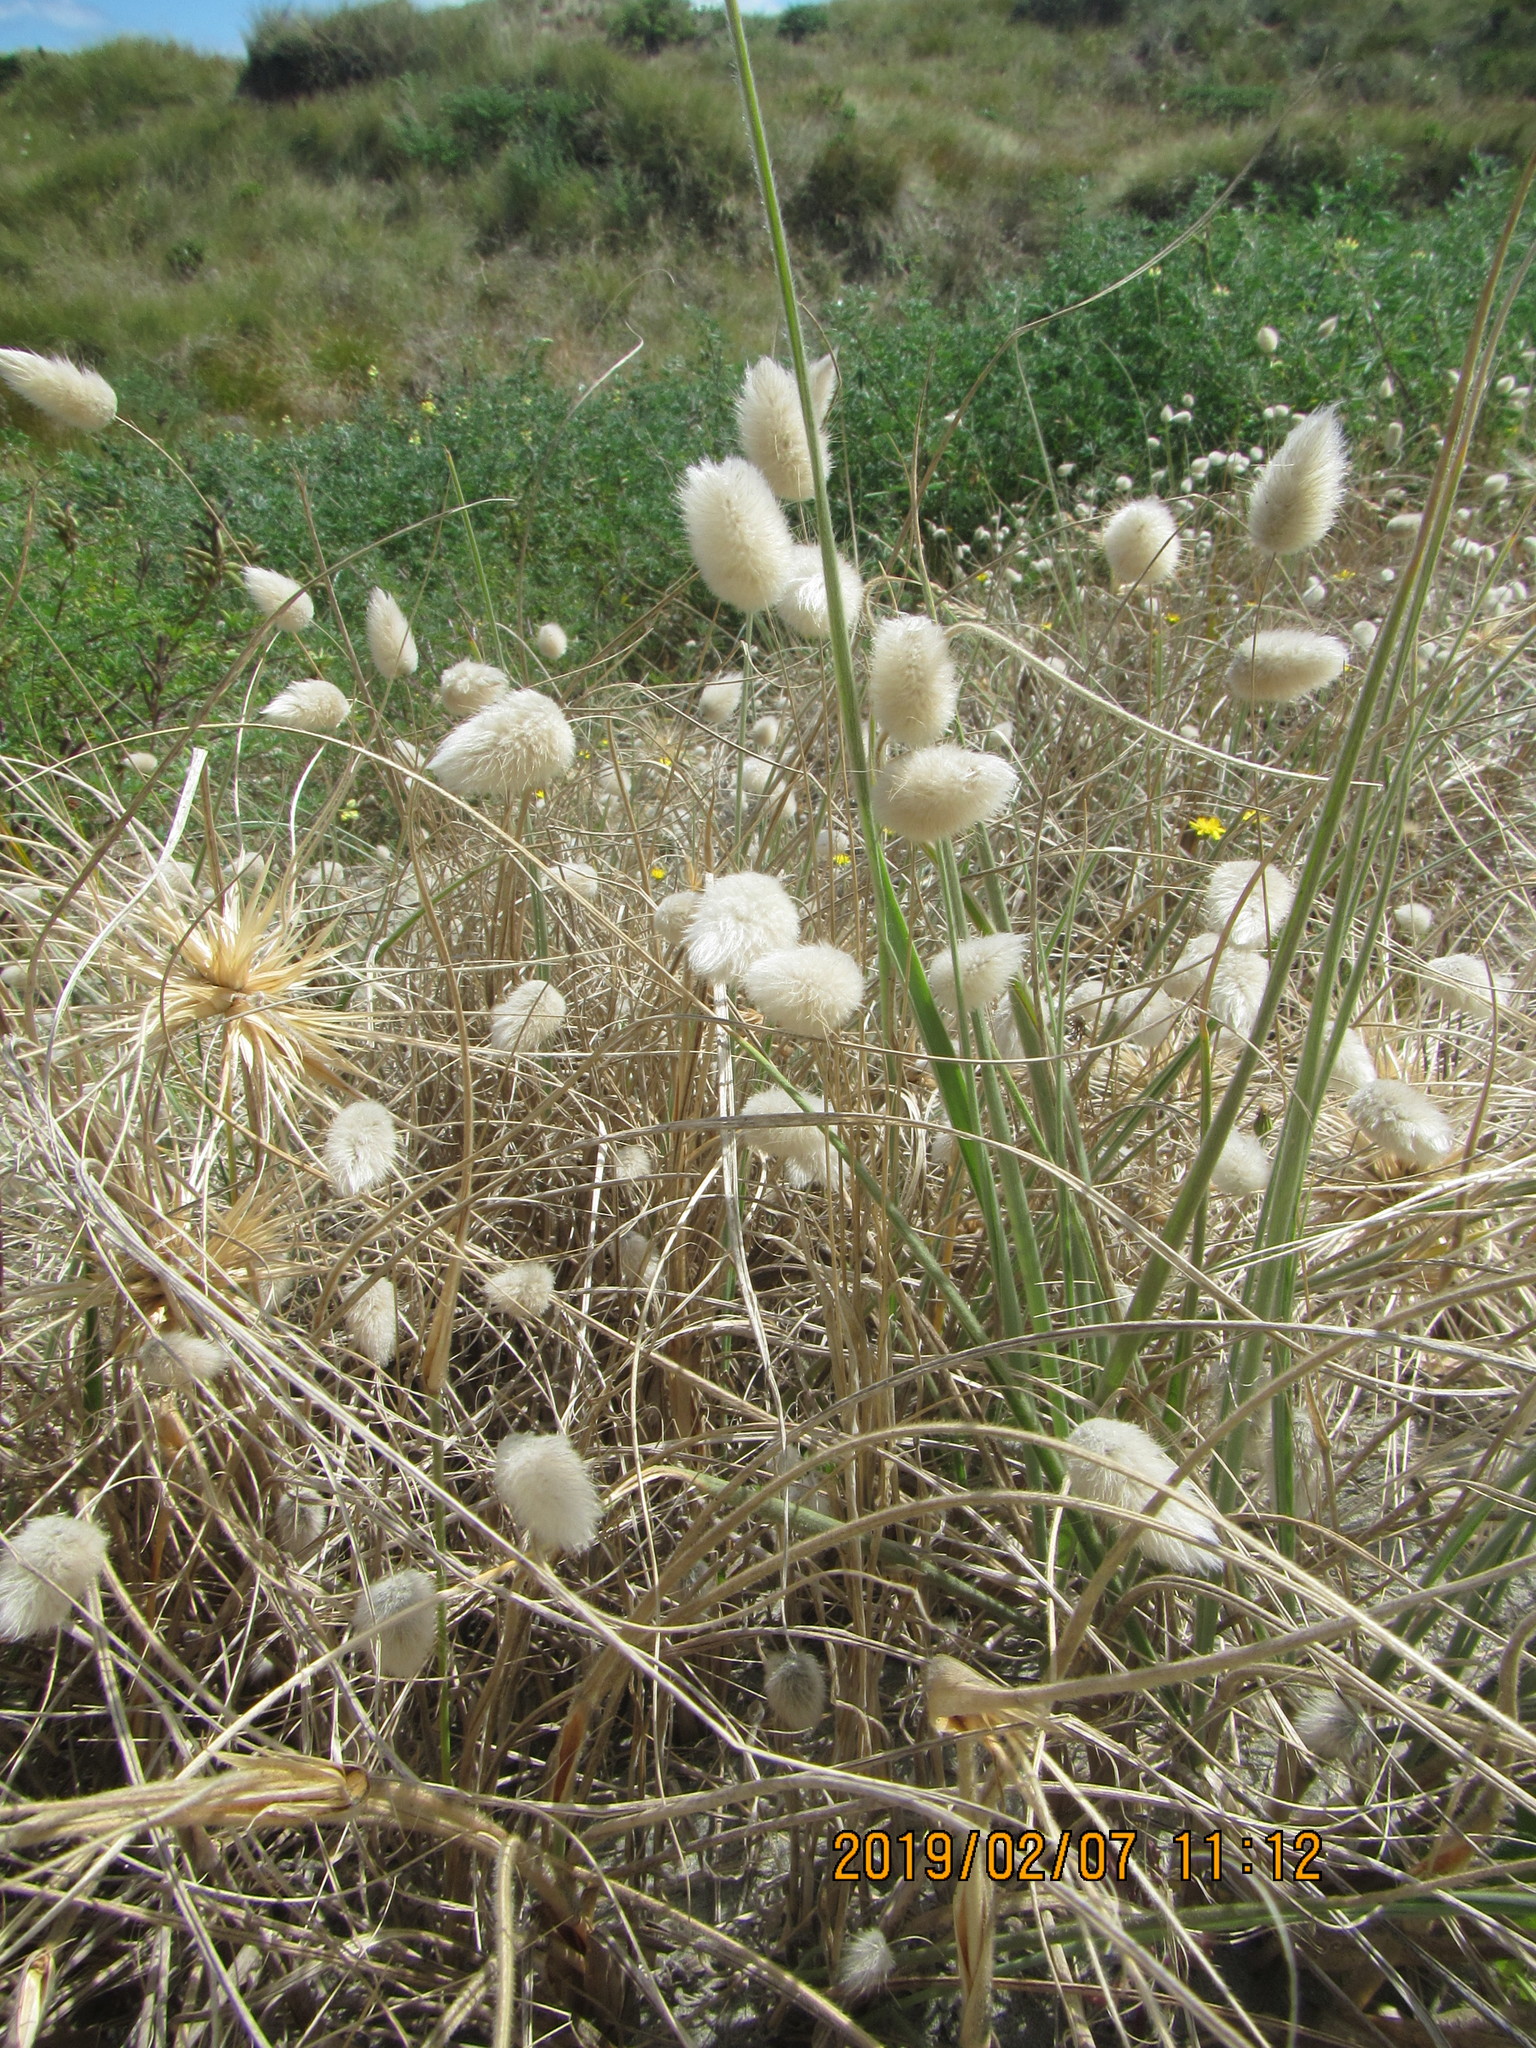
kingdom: Plantae
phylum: Tracheophyta
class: Liliopsida
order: Poales
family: Poaceae
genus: Lagurus
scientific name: Lagurus ovatus
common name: Hare's-tail
